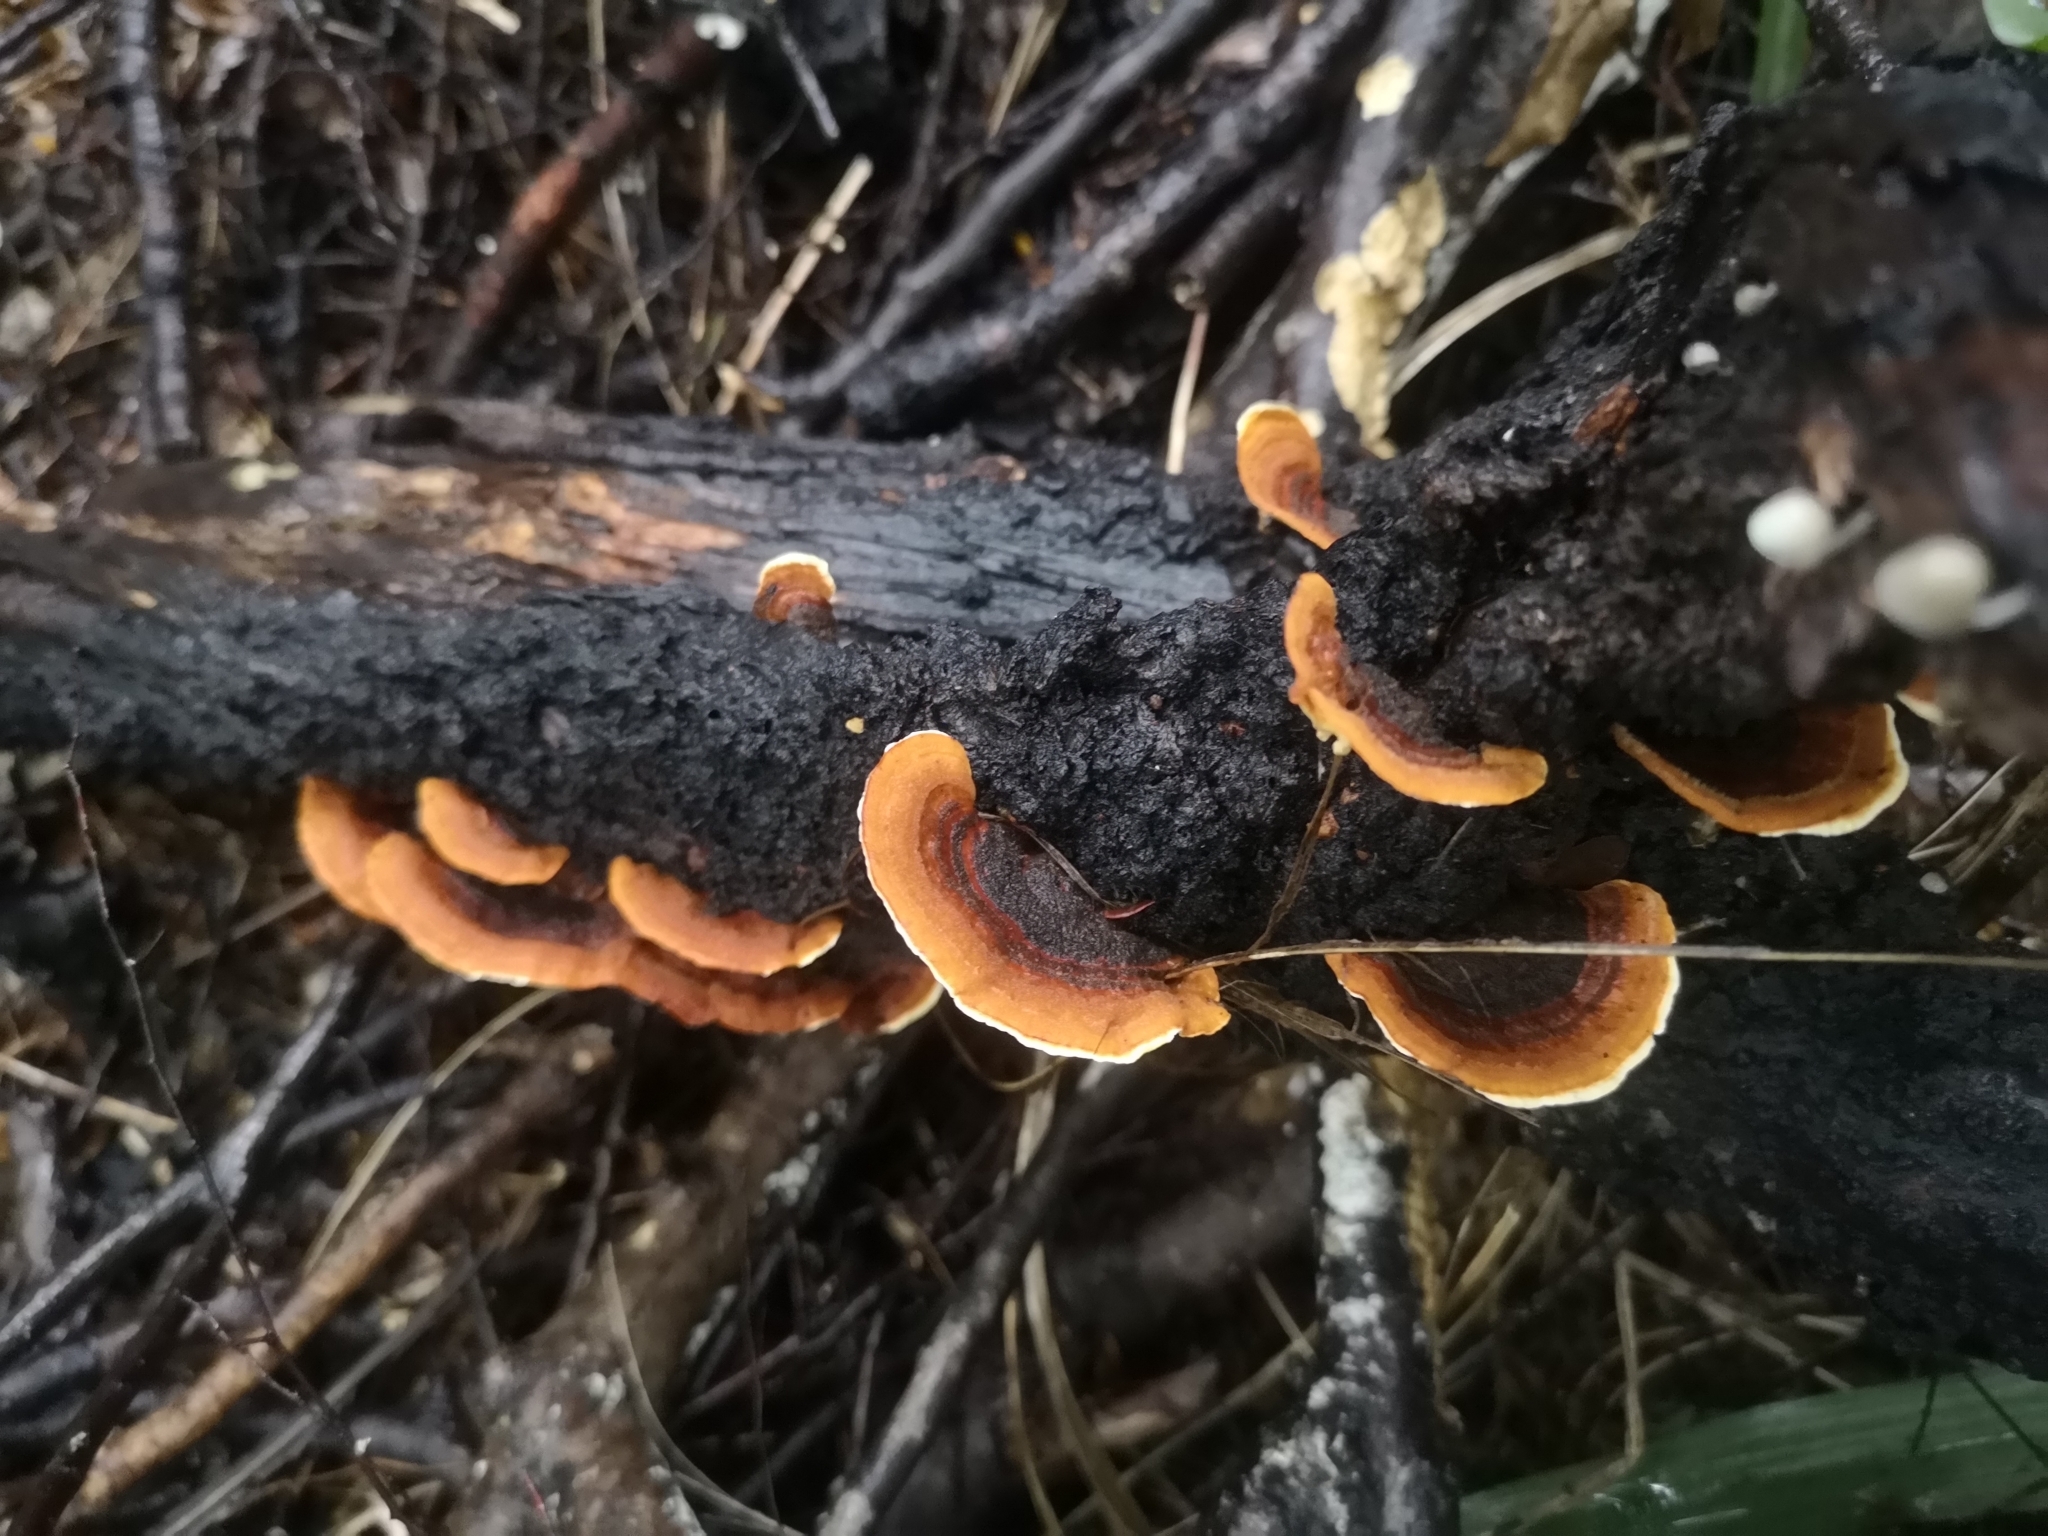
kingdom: Fungi
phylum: Basidiomycota
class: Agaricomycetes
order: Russulales
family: Stereaceae
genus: Stereum
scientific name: Stereum versicolor
